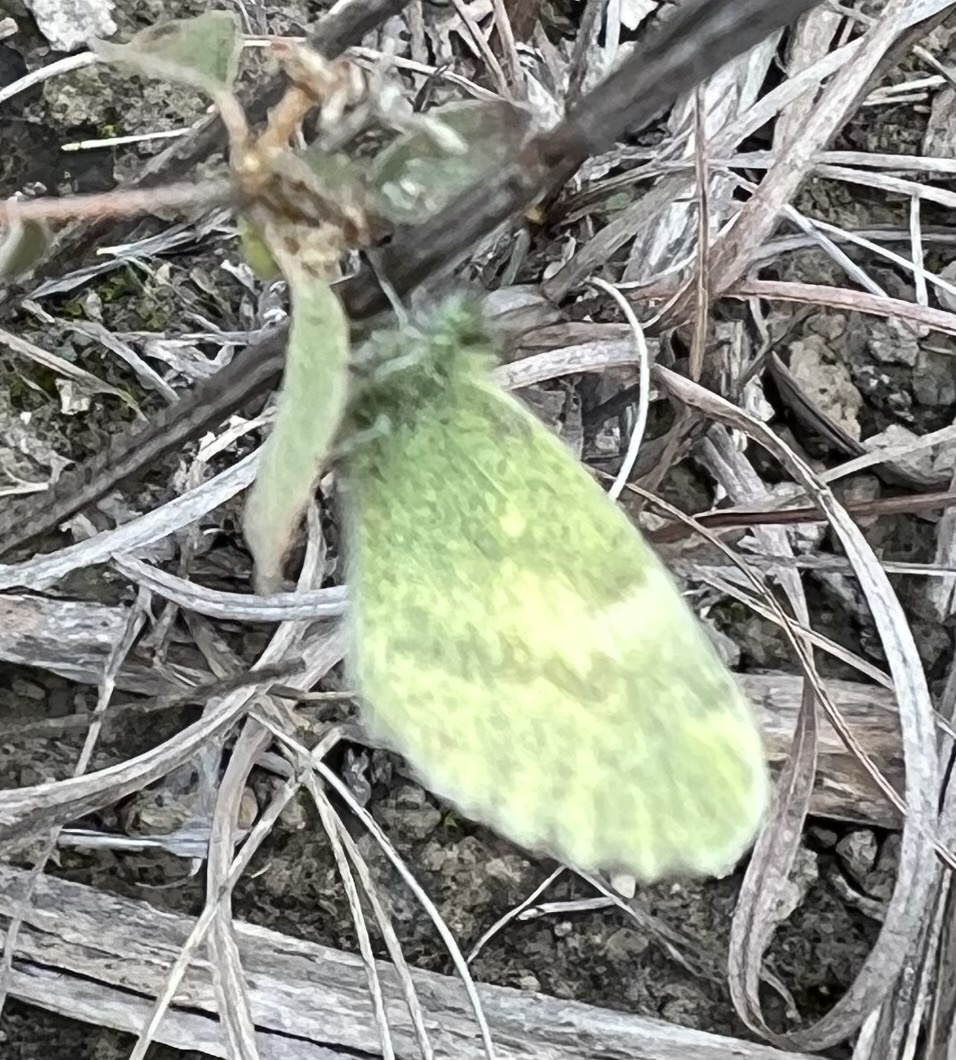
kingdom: Animalia
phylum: Arthropoda
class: Insecta
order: Lepidoptera
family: Pieridae
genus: Nathalis
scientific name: Nathalis iole
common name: Dainty sulphur
